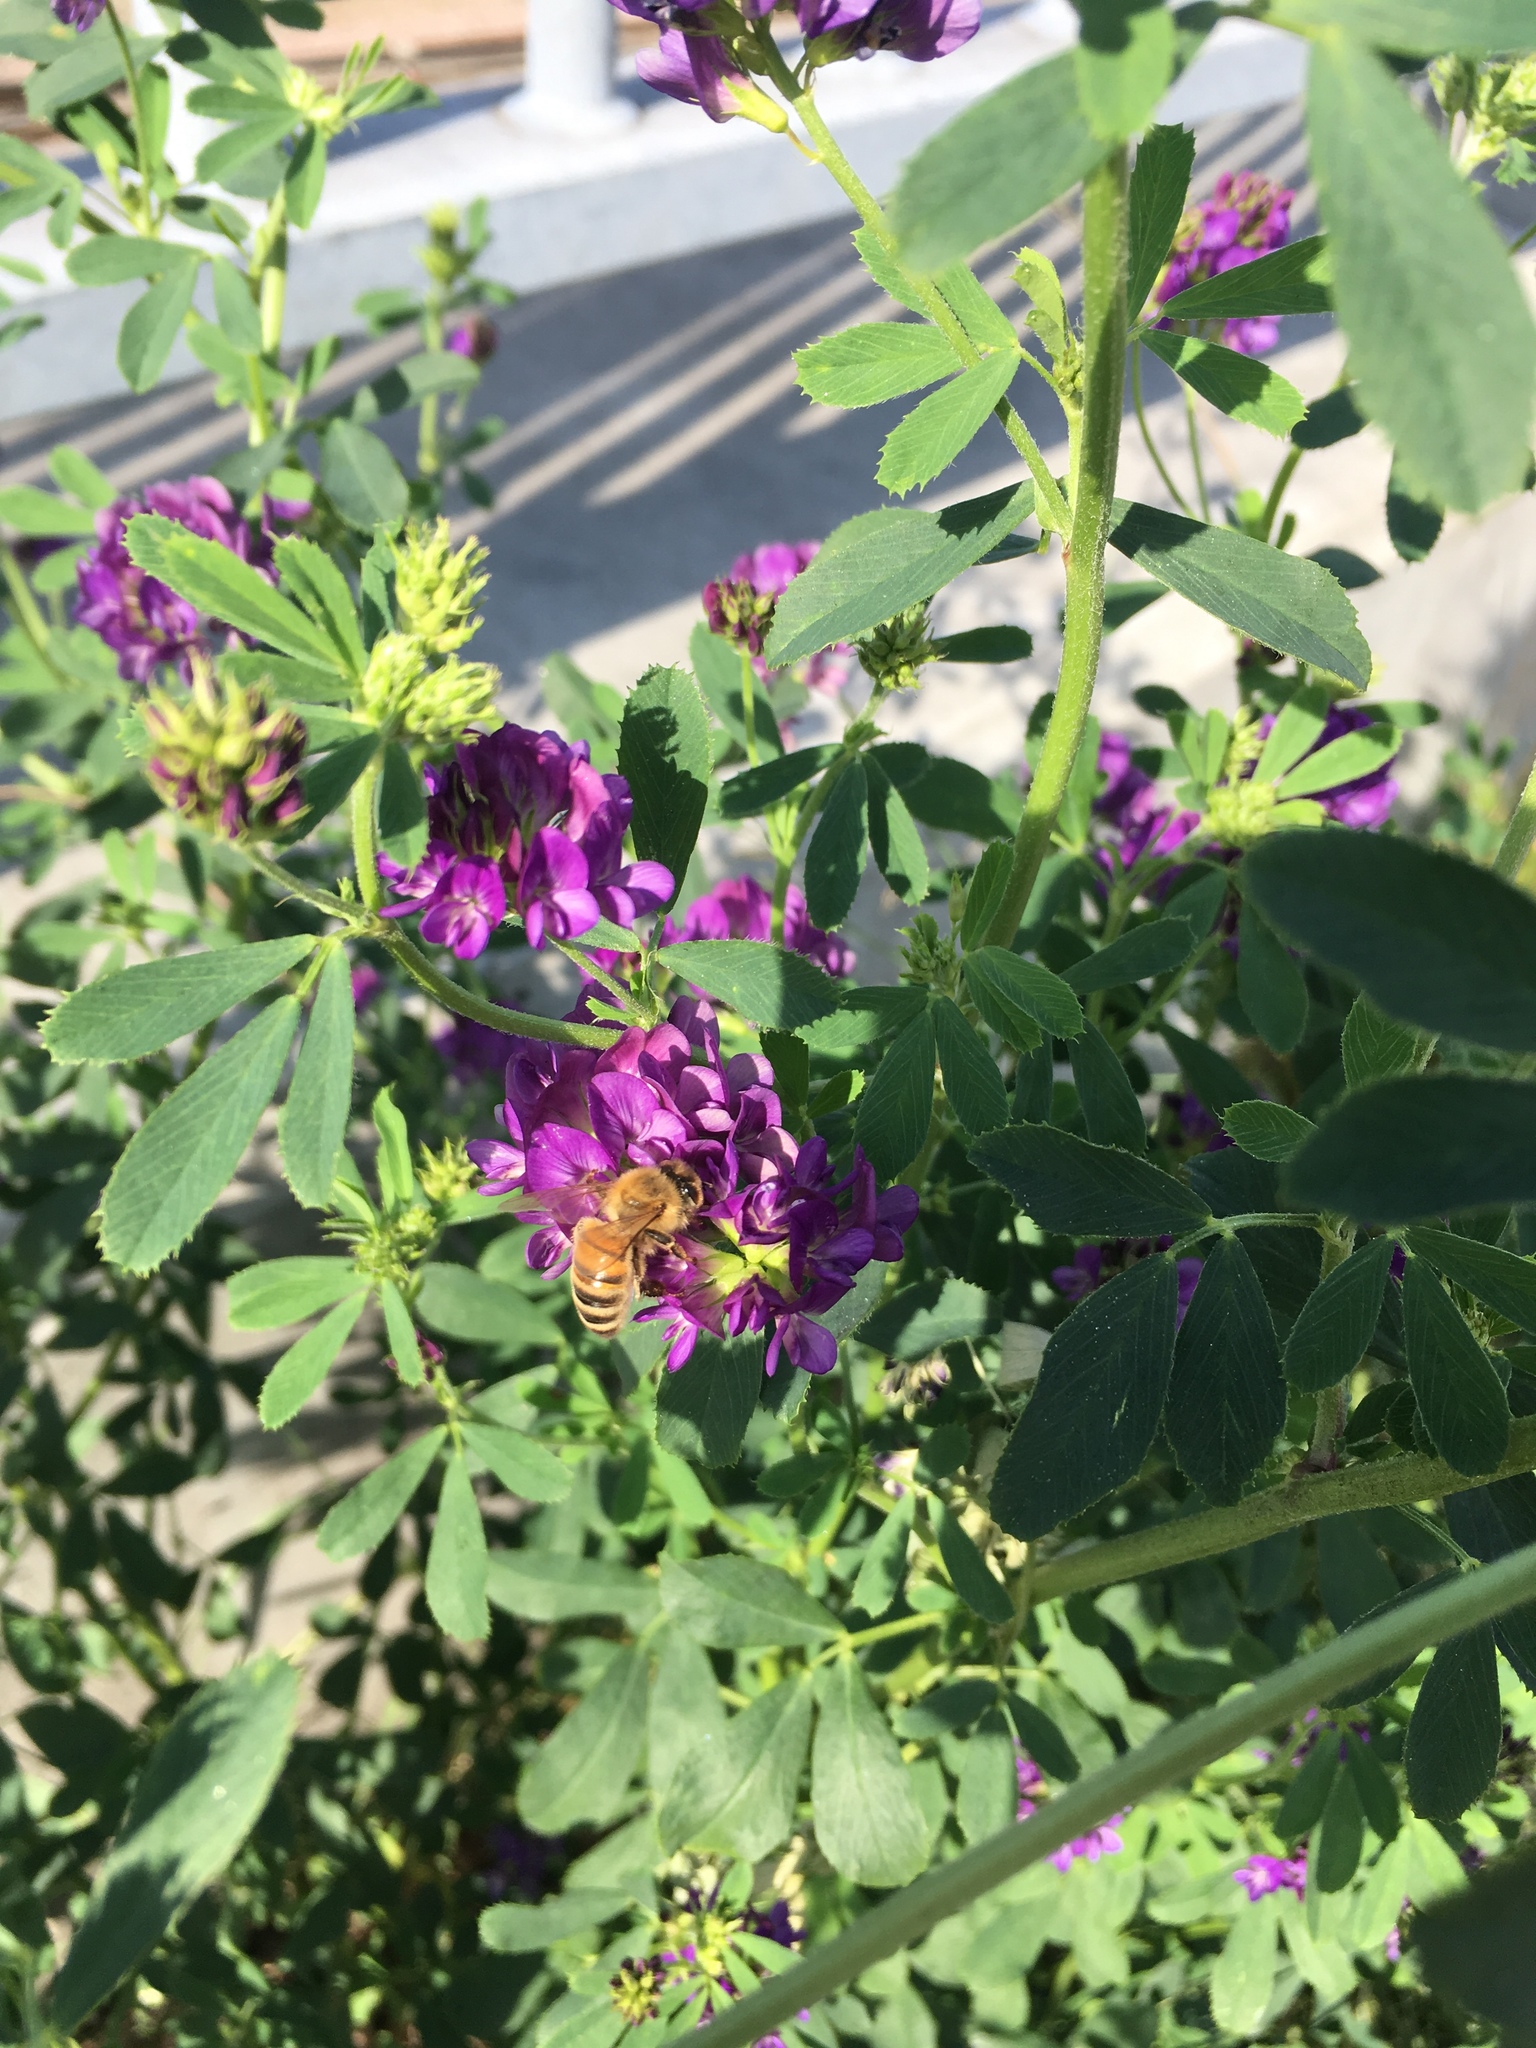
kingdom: Plantae
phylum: Tracheophyta
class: Magnoliopsida
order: Fabales
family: Fabaceae
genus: Medicago
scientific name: Medicago sativa
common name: Alfalfa
